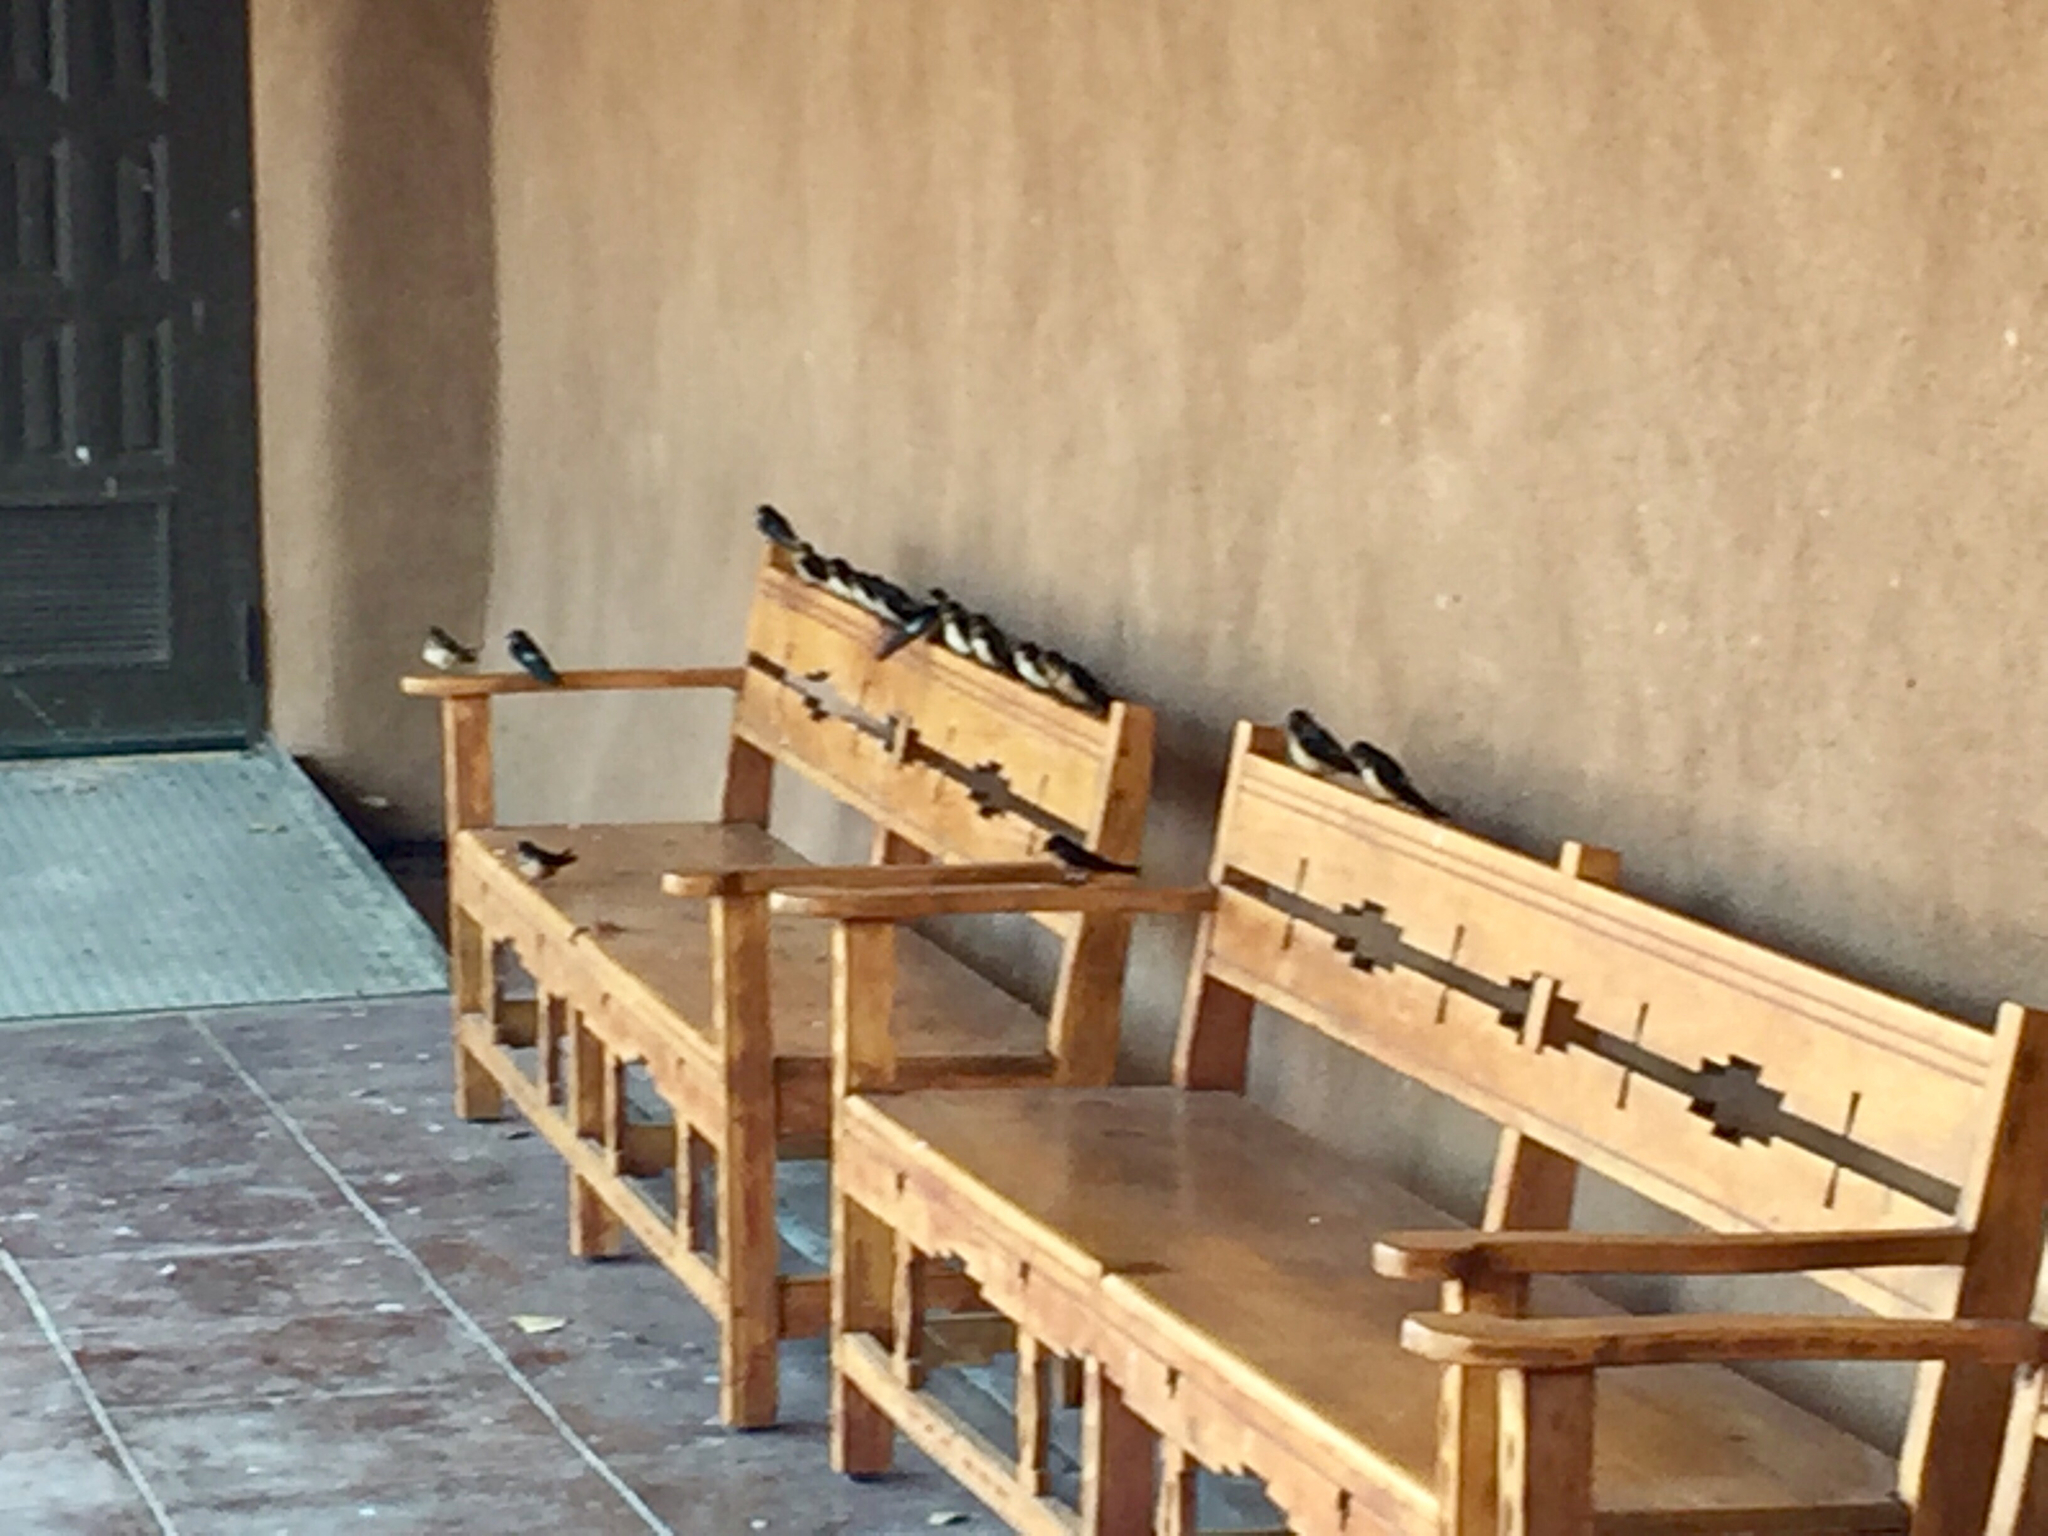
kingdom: Animalia
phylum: Chordata
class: Aves
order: Passeriformes
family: Hirundinidae
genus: Hirundo
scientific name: Hirundo rustica
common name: Barn swallow
